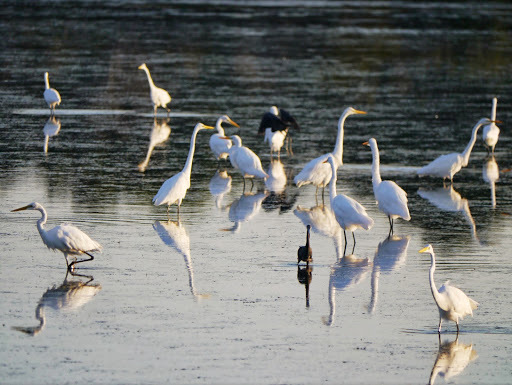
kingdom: Animalia
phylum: Chordata
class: Aves
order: Pelecaniformes
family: Ardeidae
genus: Ardea
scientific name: Ardea alba
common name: Great egret
